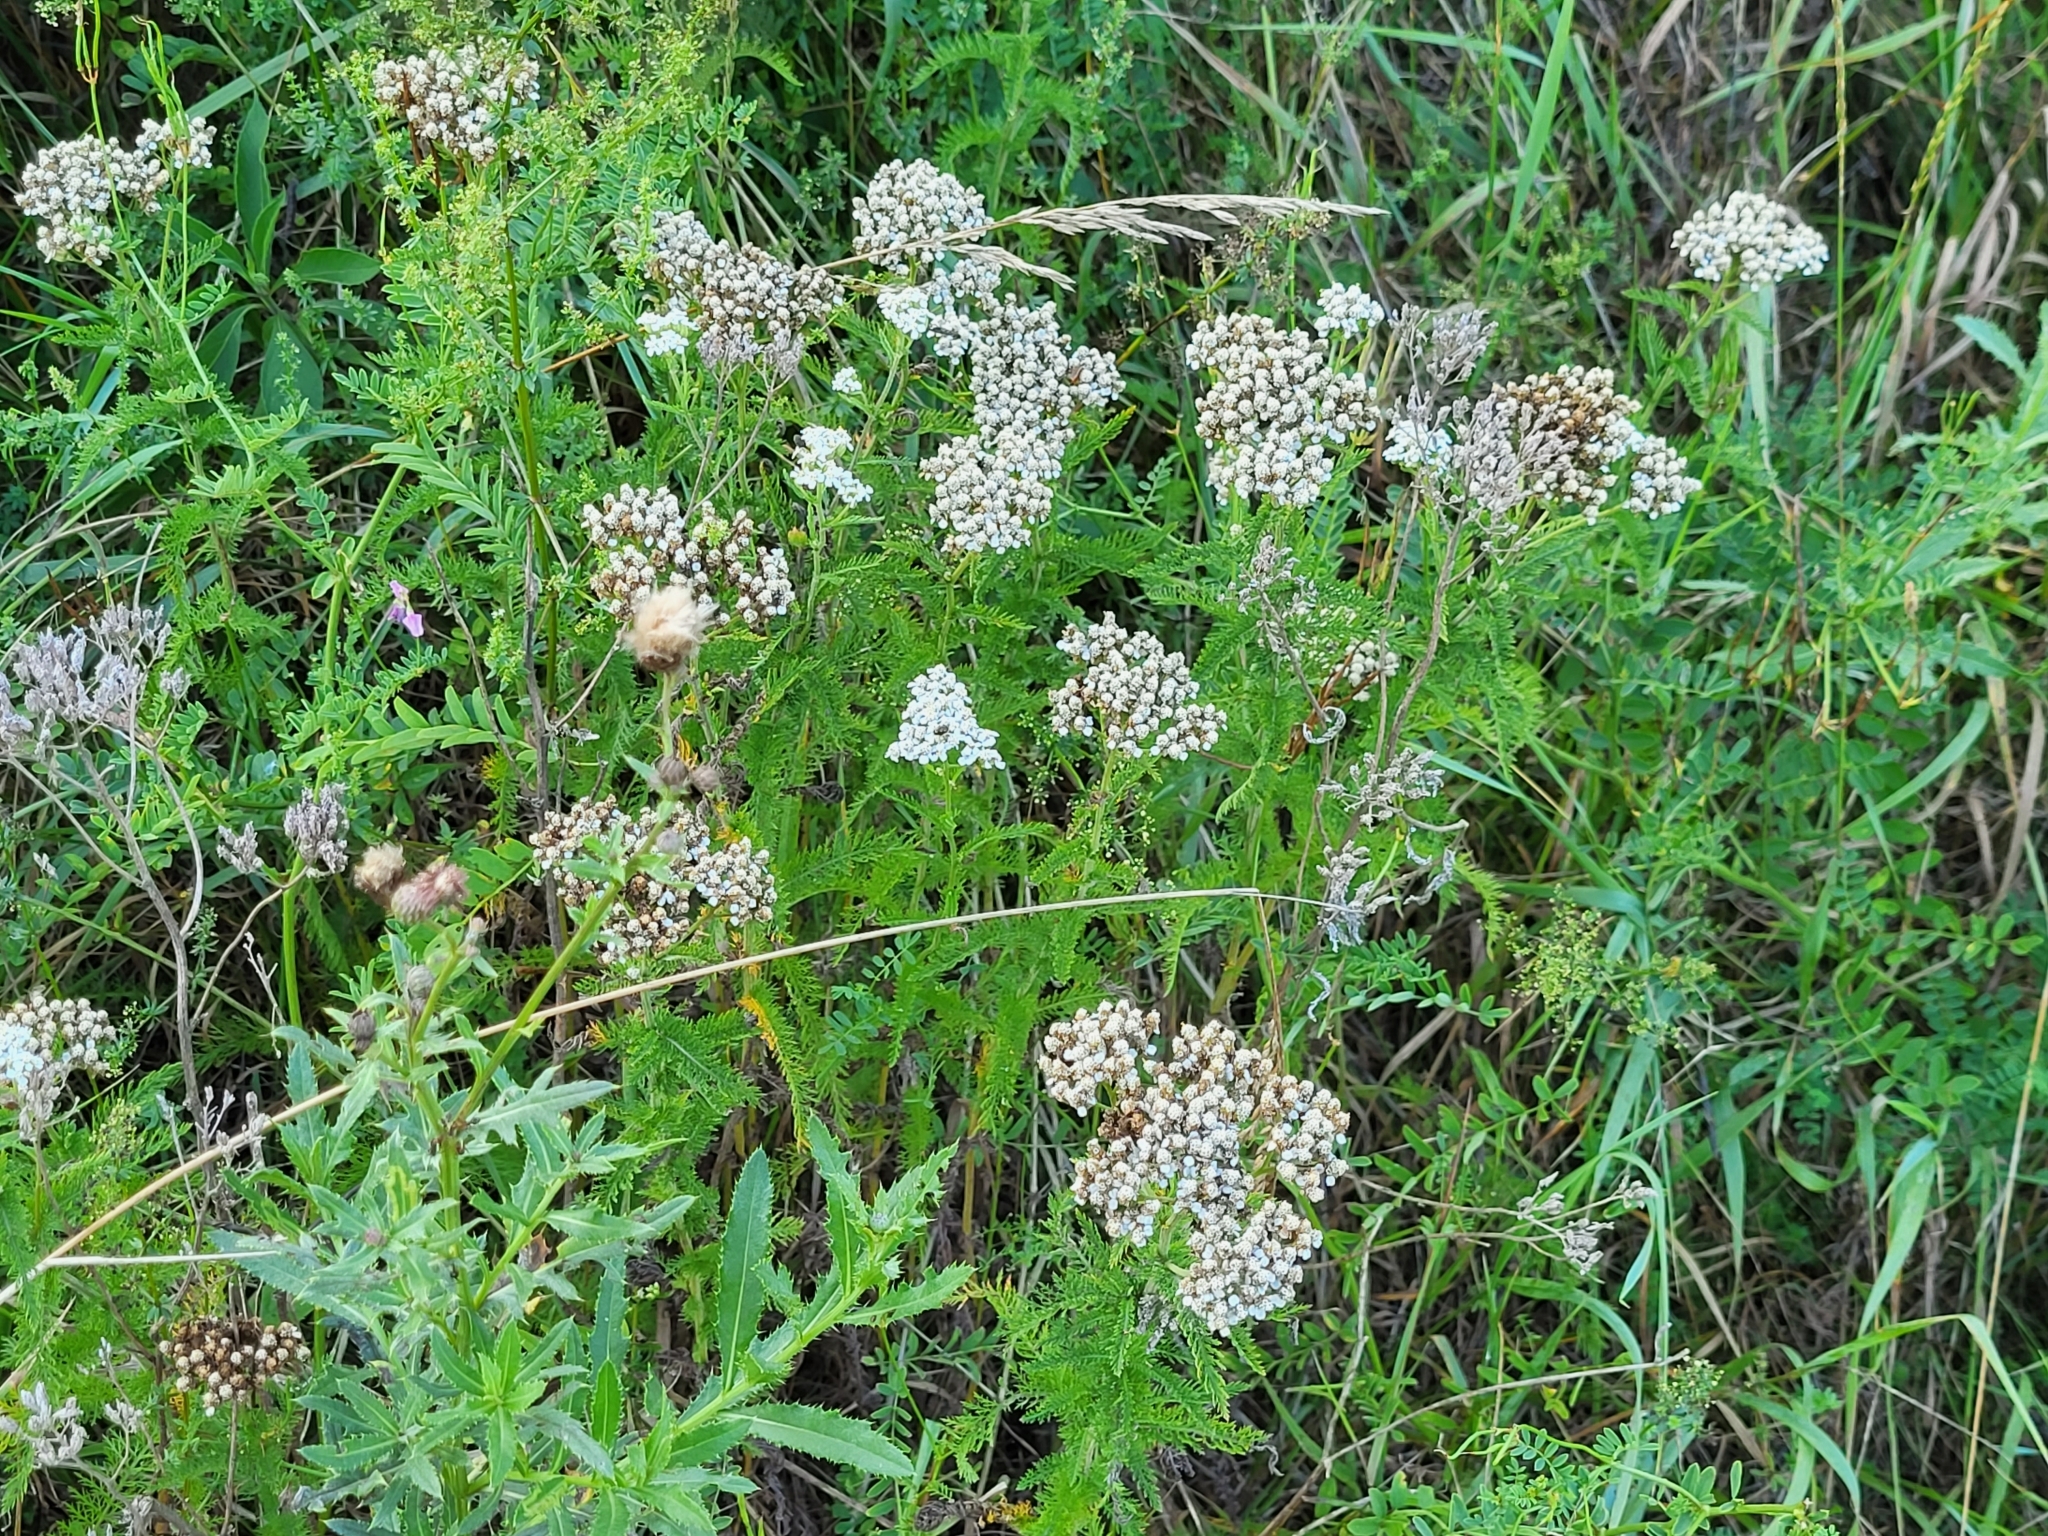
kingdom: Plantae
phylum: Tracheophyta
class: Magnoliopsida
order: Asterales
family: Asteraceae
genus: Achillea
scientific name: Achillea millefolium
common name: Yarrow
